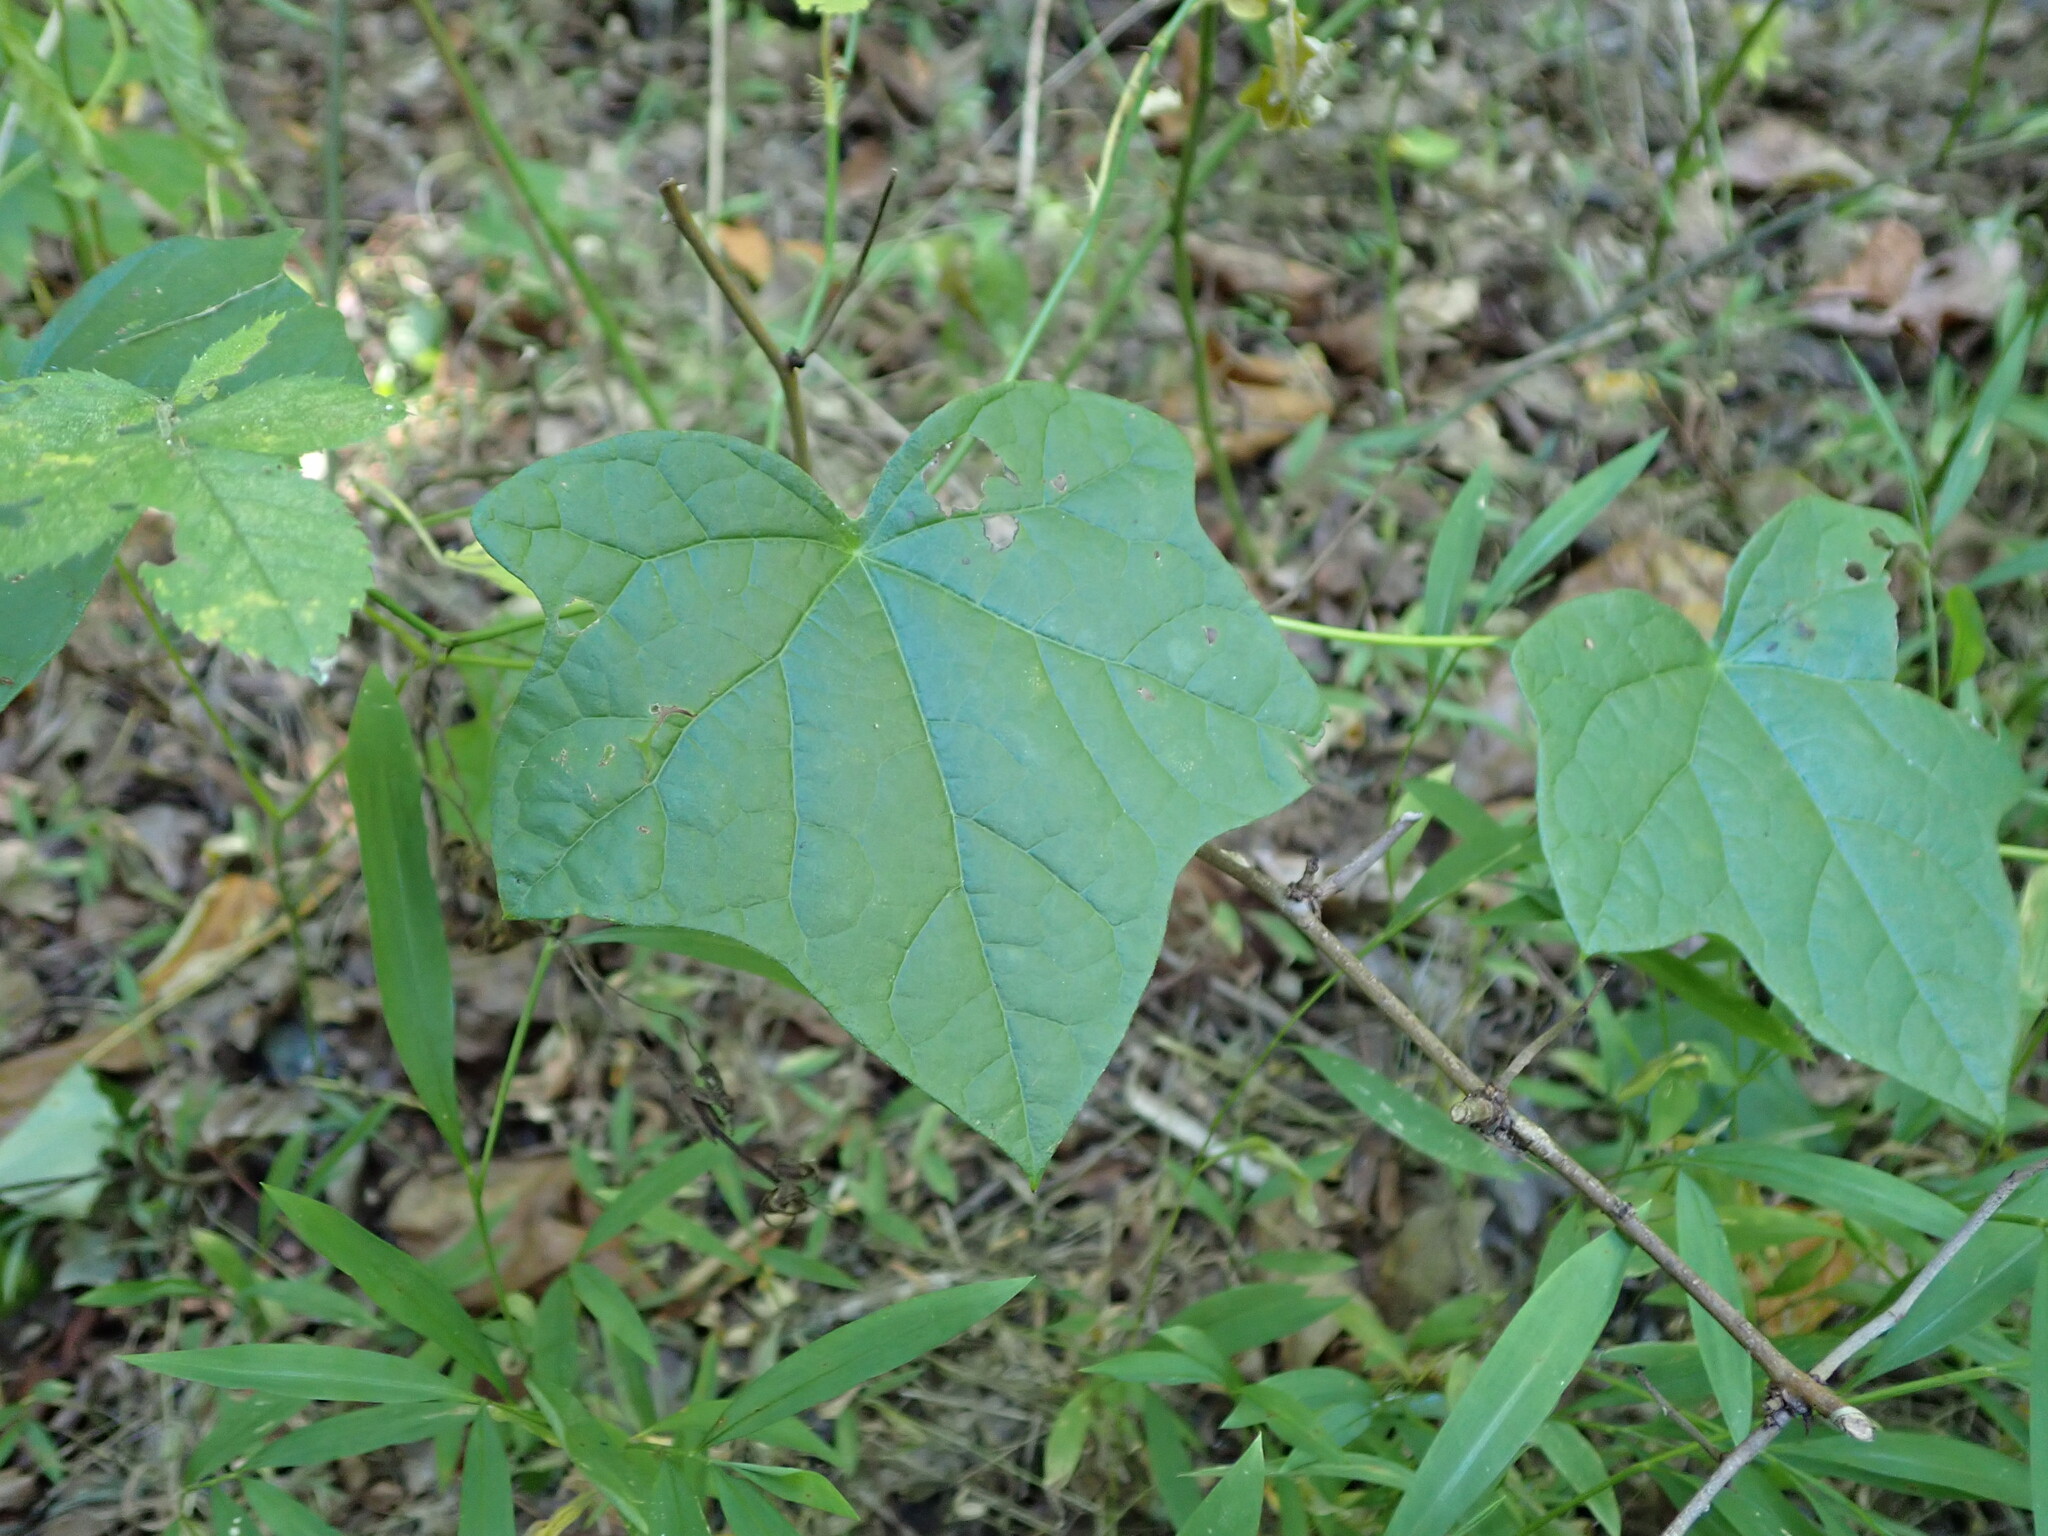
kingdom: Plantae
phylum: Tracheophyta
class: Magnoliopsida
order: Ranunculales
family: Menispermaceae
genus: Menispermum
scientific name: Menispermum canadense
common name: Moonseed
